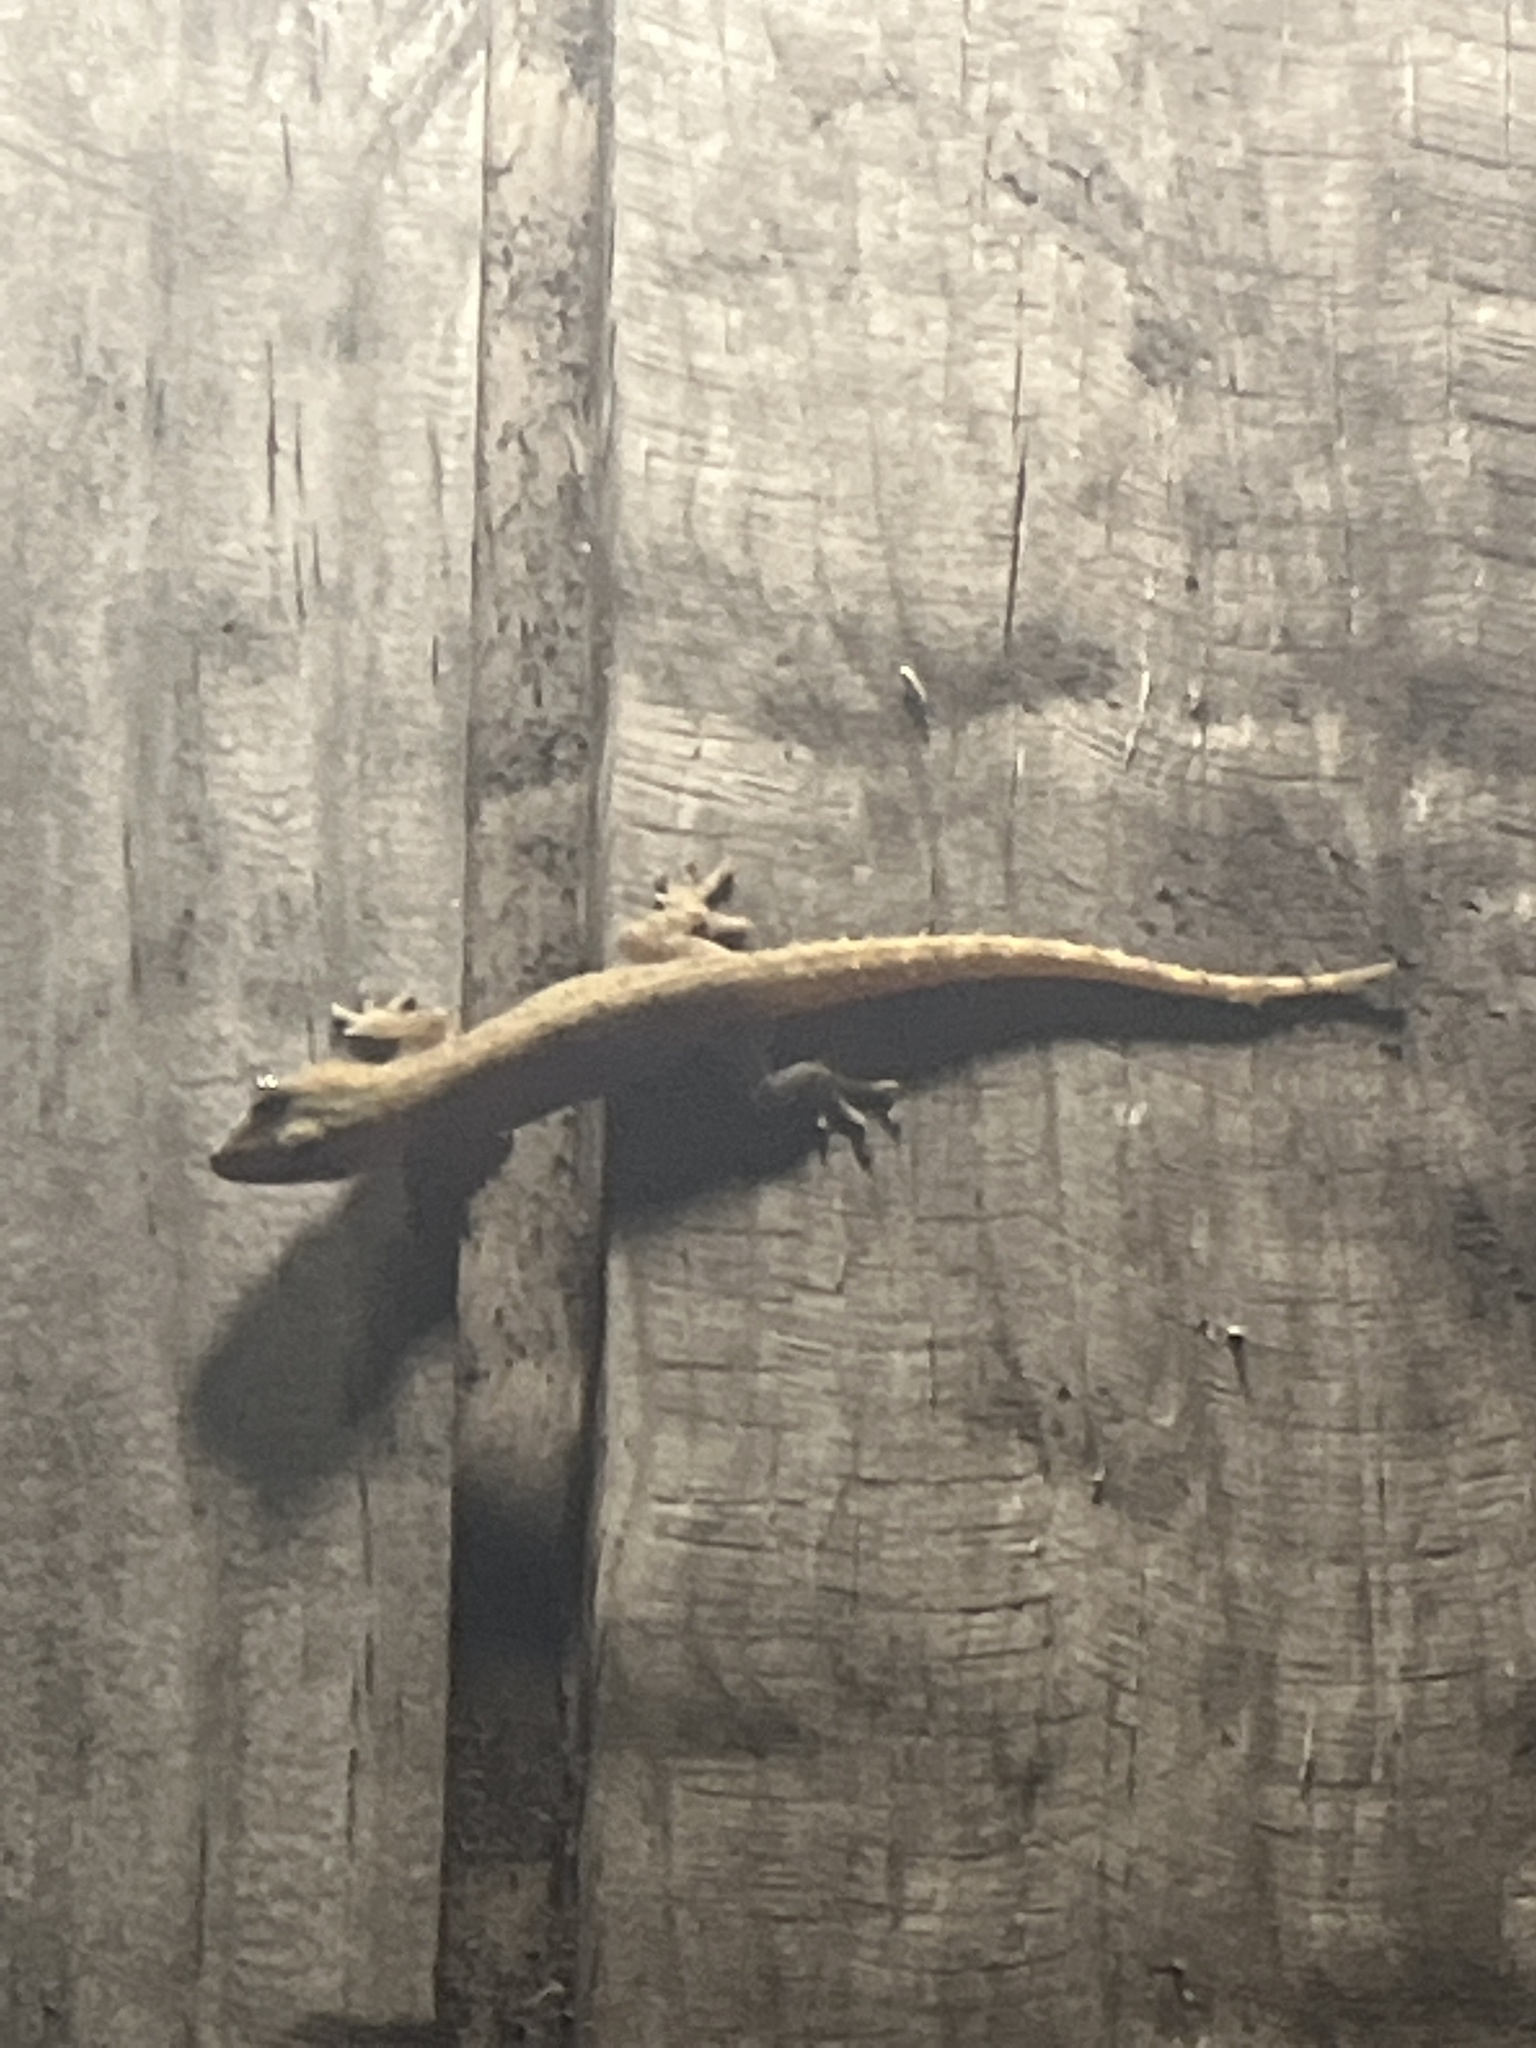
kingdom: Animalia
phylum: Chordata
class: Squamata
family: Gekkonidae
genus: Hemidactylus
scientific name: Hemidactylus frenatus
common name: Common house gecko
